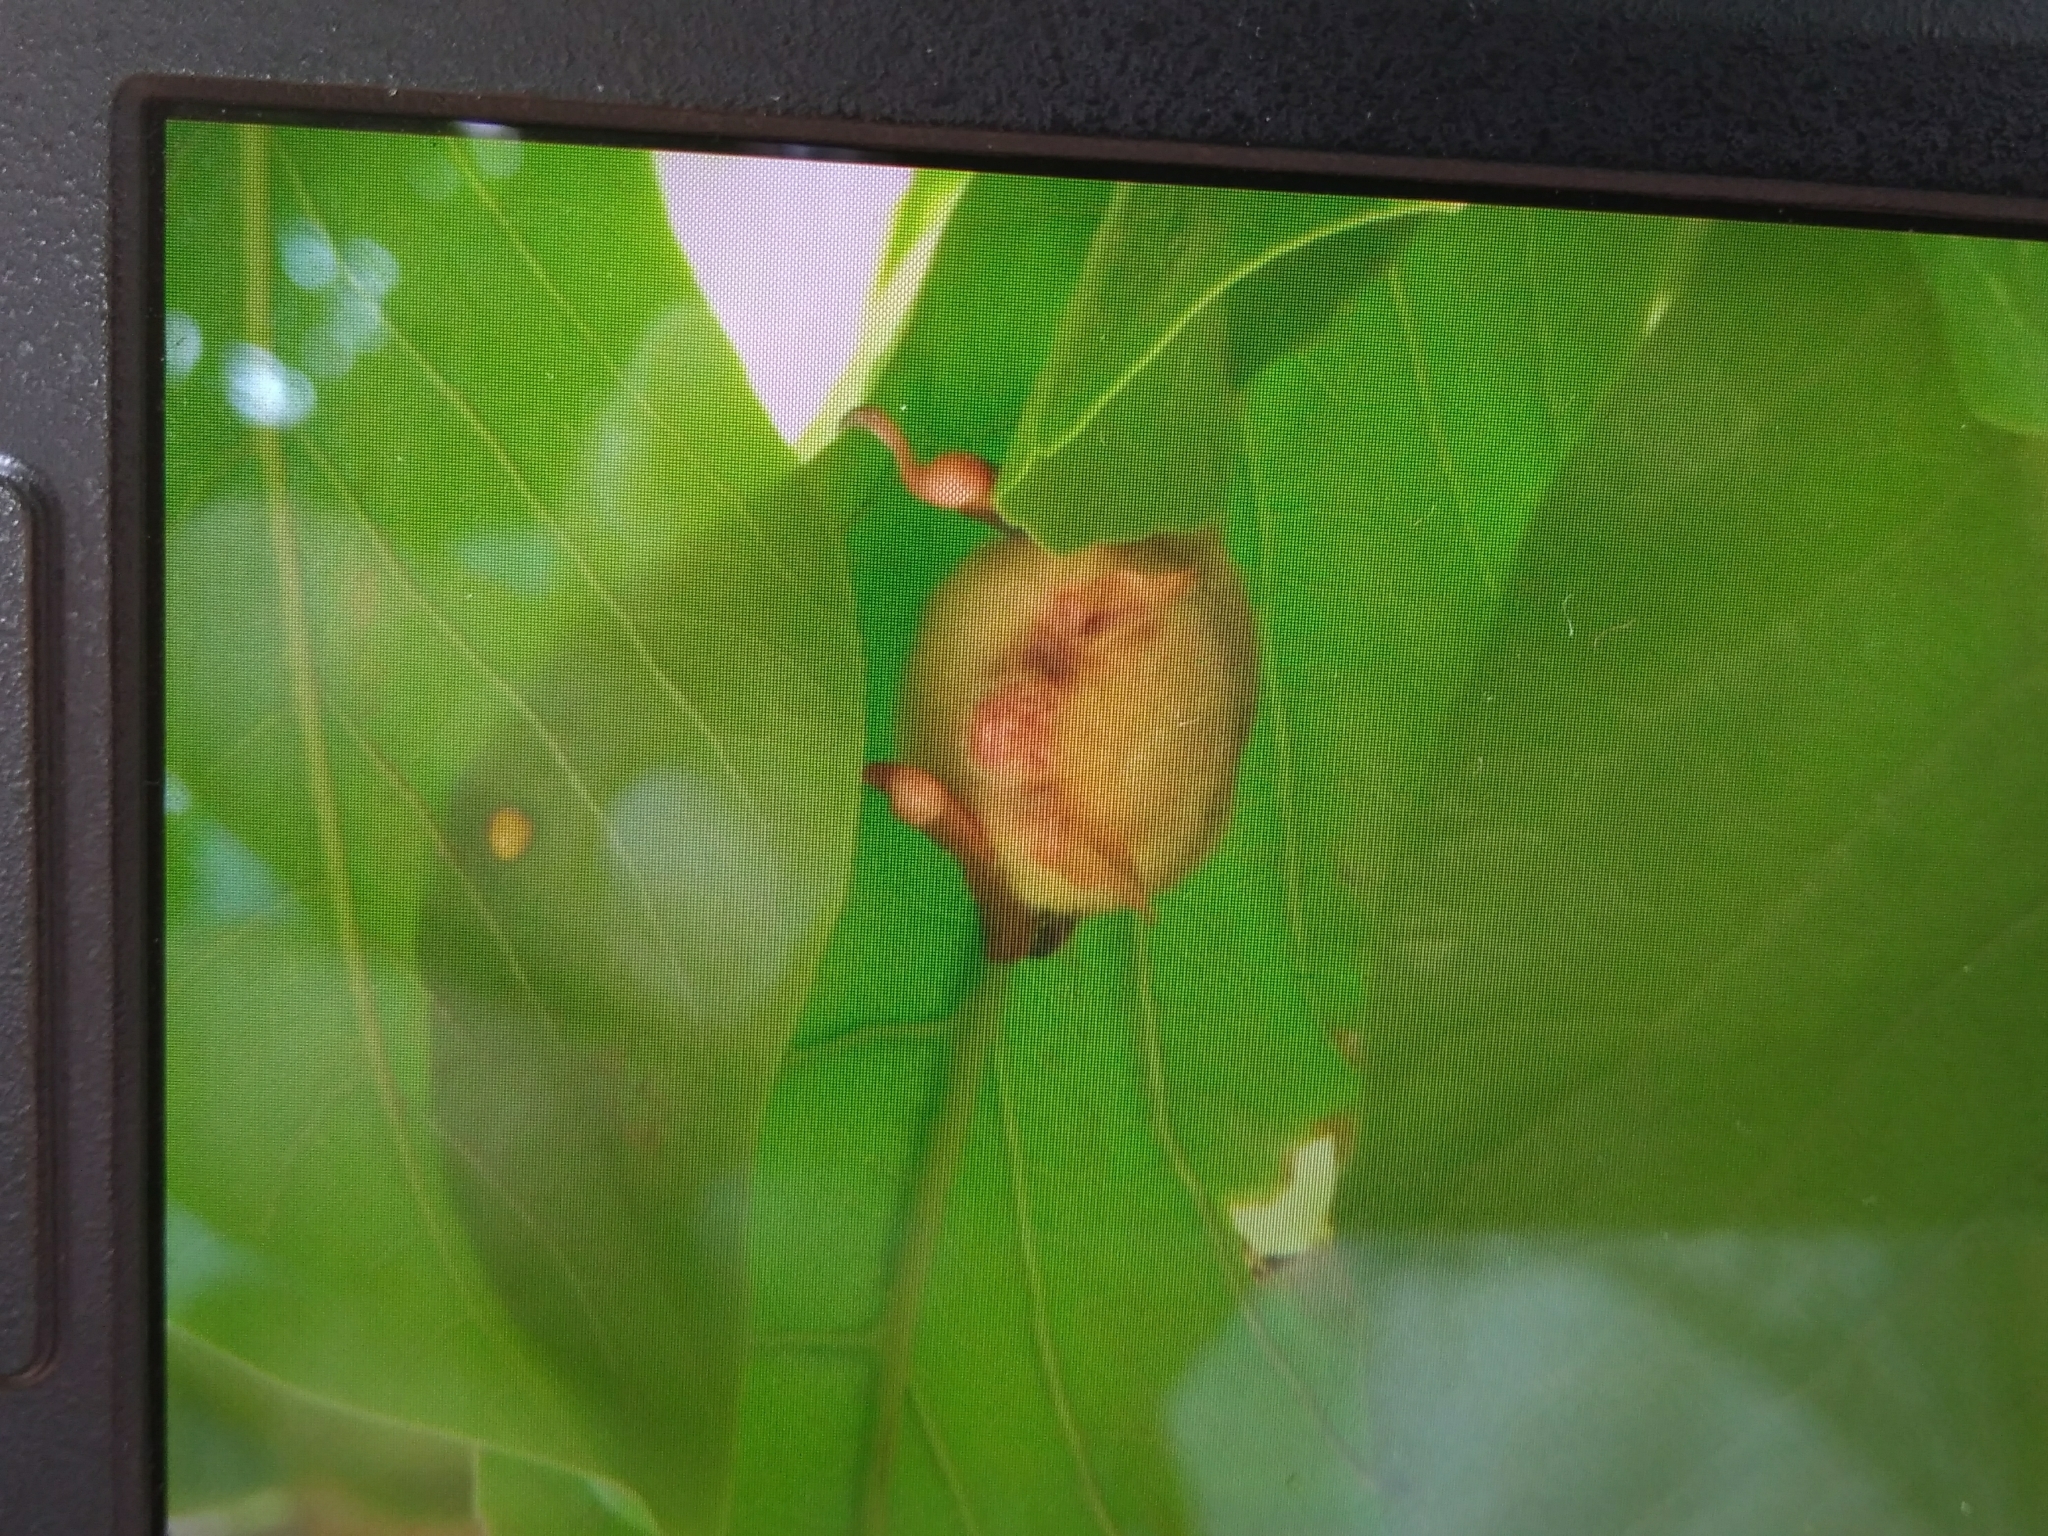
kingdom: Animalia
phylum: Chordata
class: Mammalia
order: Chiroptera
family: Vespertilionidae
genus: Myotis
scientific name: Myotis formosus
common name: Hodgson's myotis
